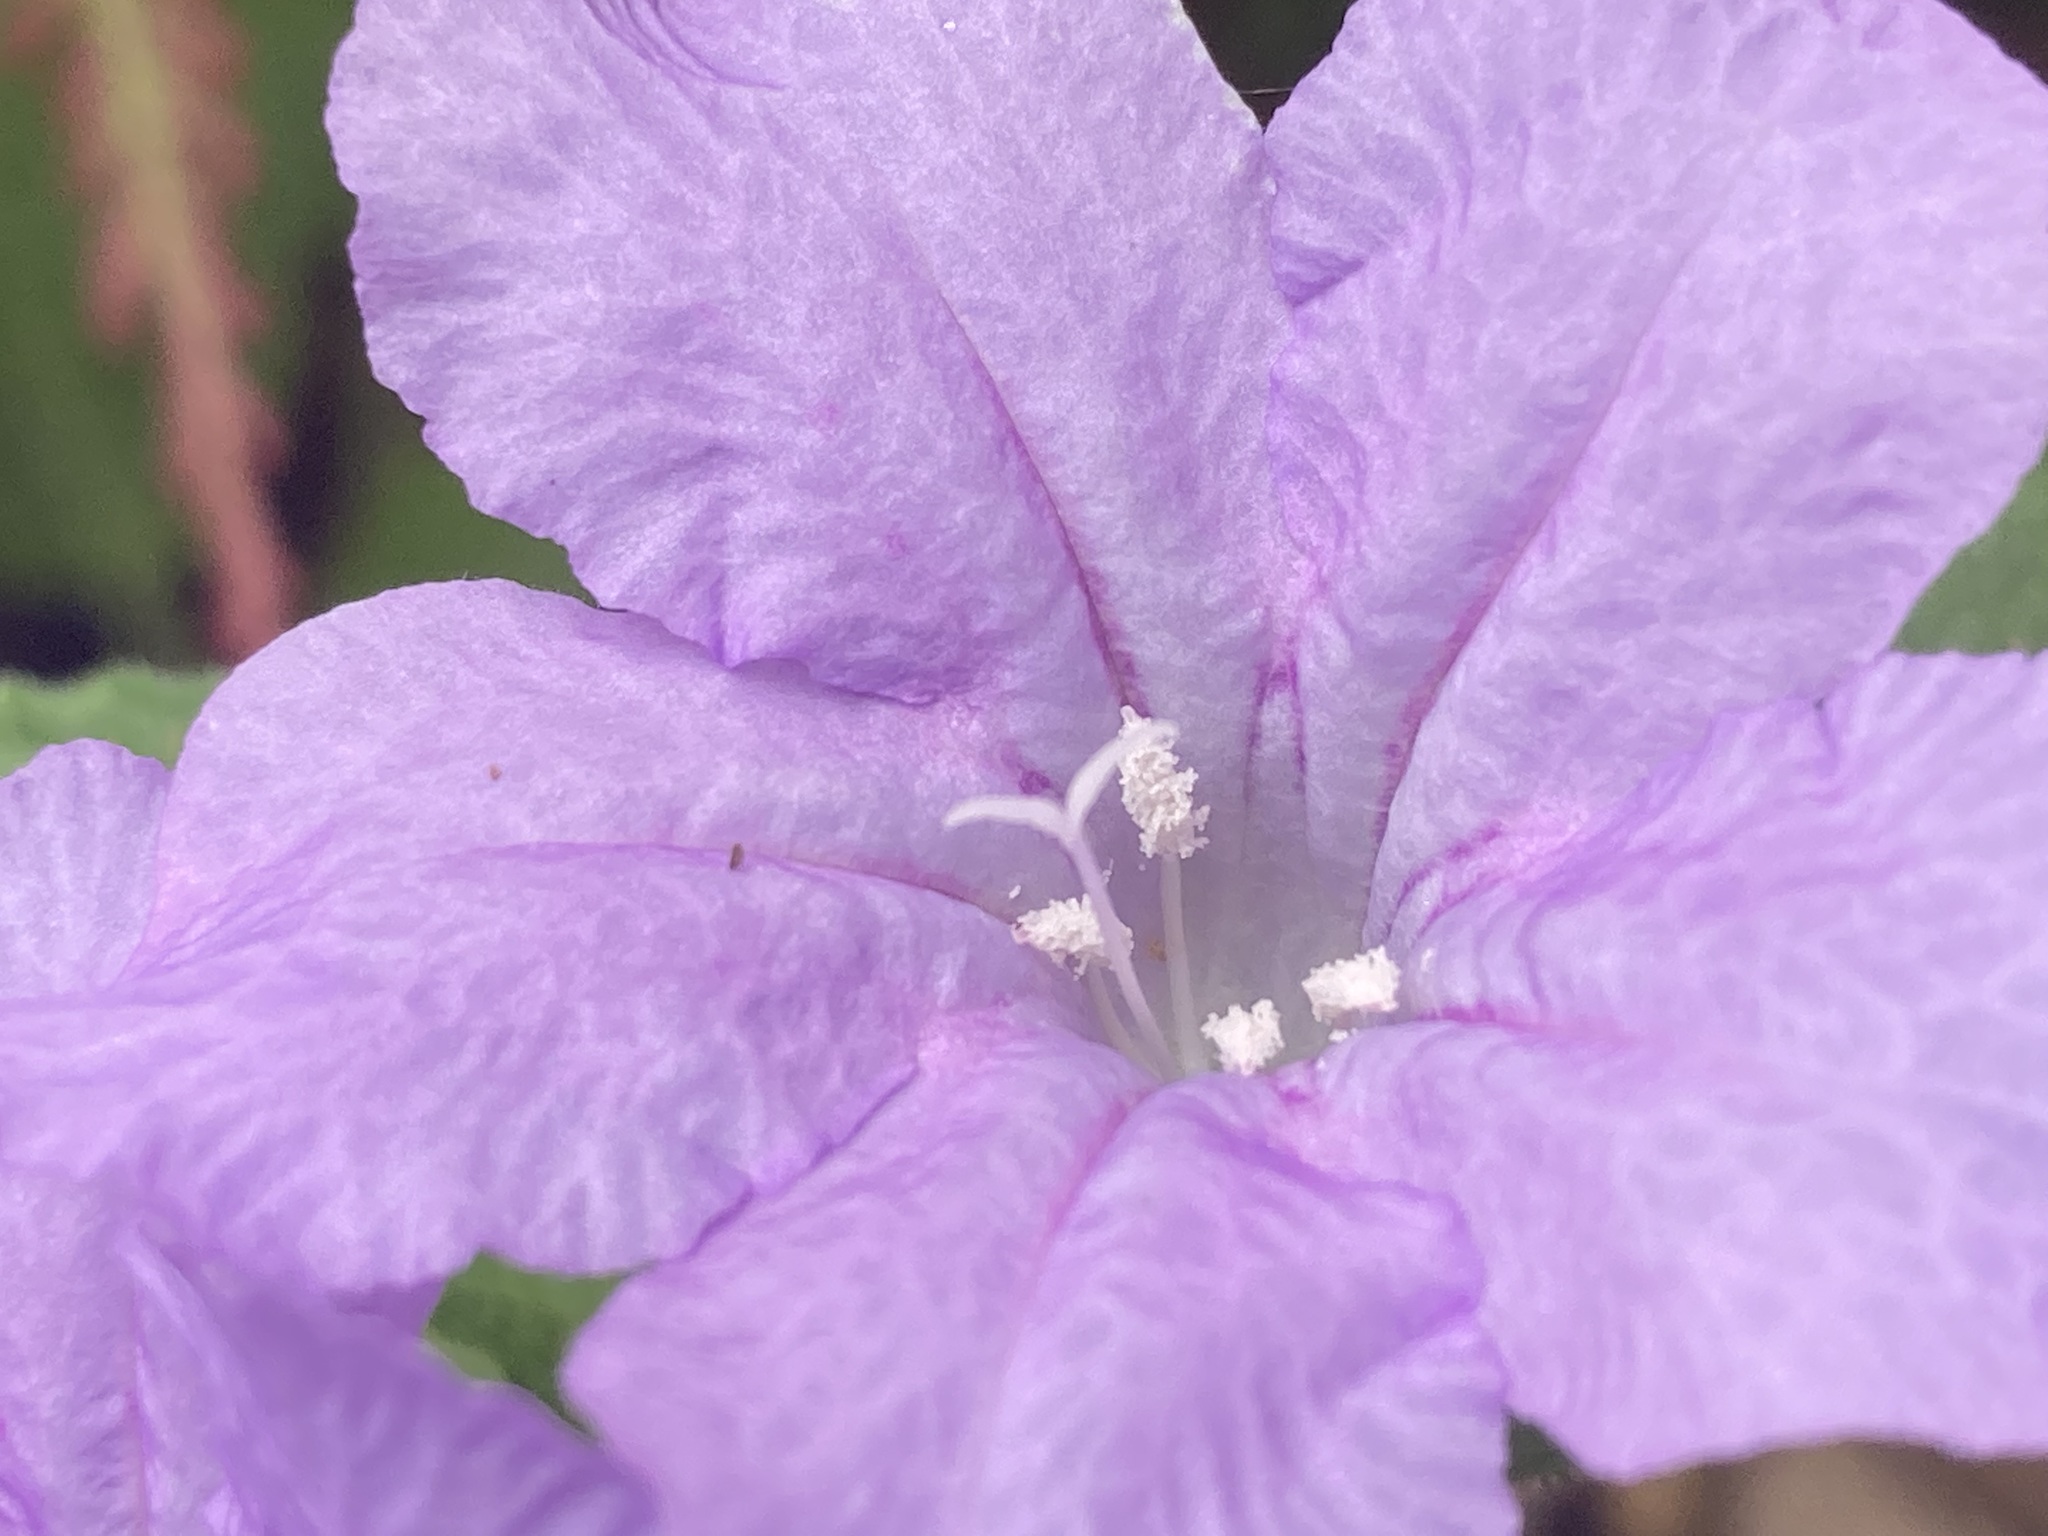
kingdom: Plantae
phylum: Tracheophyta
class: Magnoliopsida
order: Lamiales
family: Acanthaceae
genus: Ruellia
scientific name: Ruellia caroliniensis
